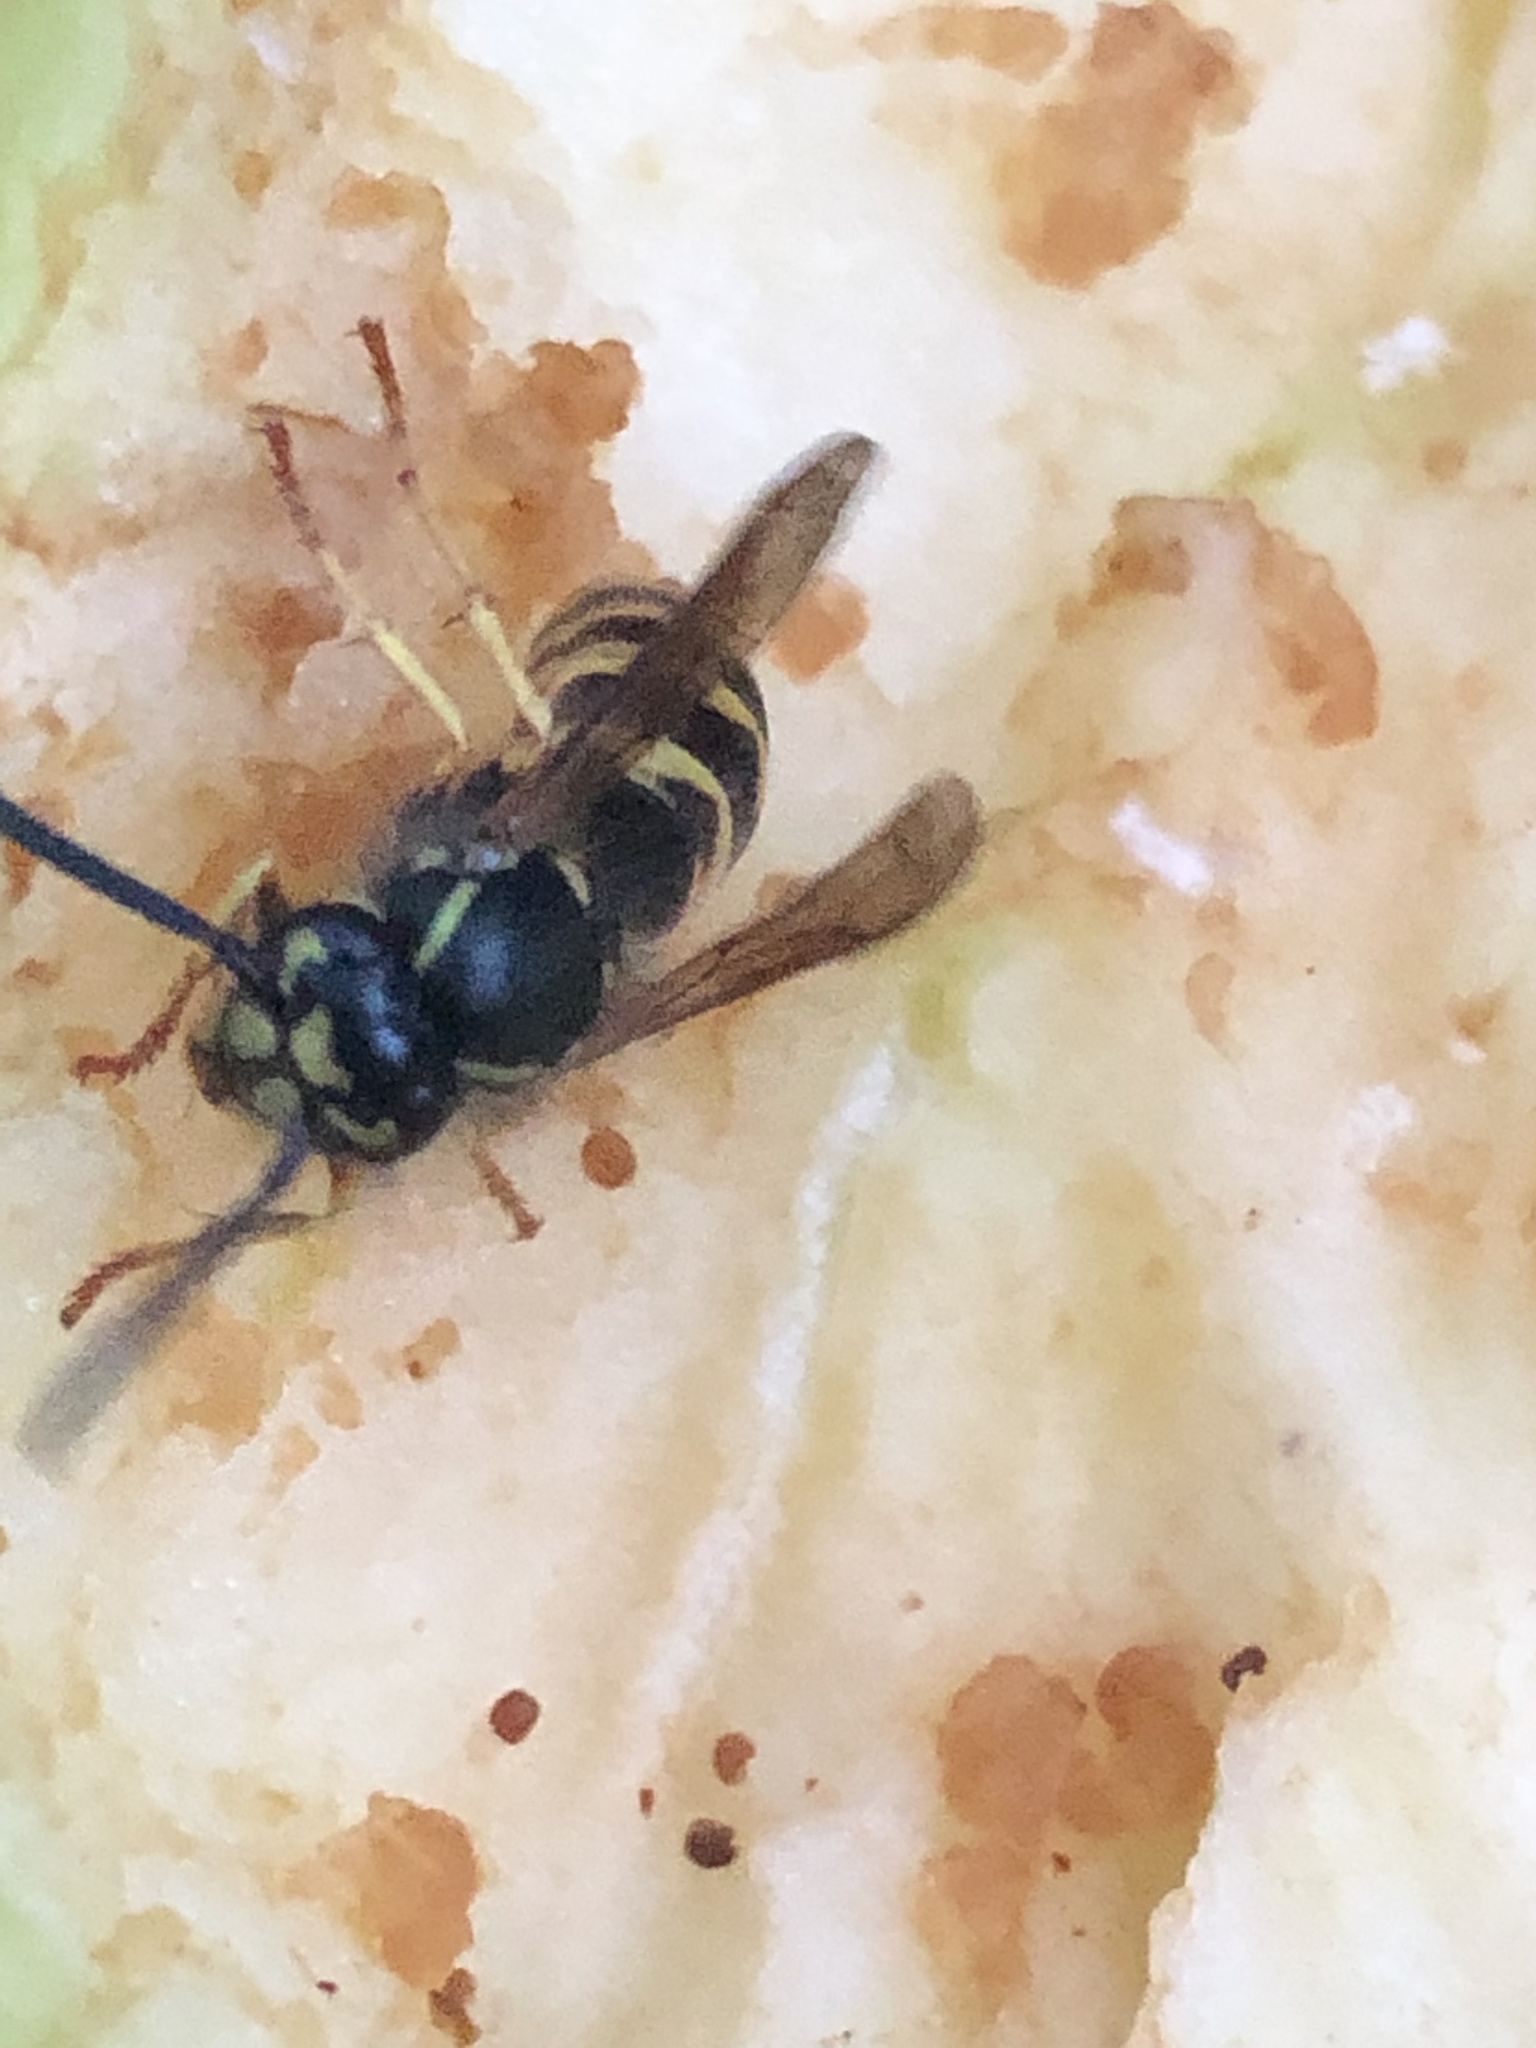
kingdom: Animalia
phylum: Arthropoda
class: Insecta
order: Hymenoptera
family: Vespidae
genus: Vespula
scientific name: Vespula alascensis
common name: Alaska yellowjacket
